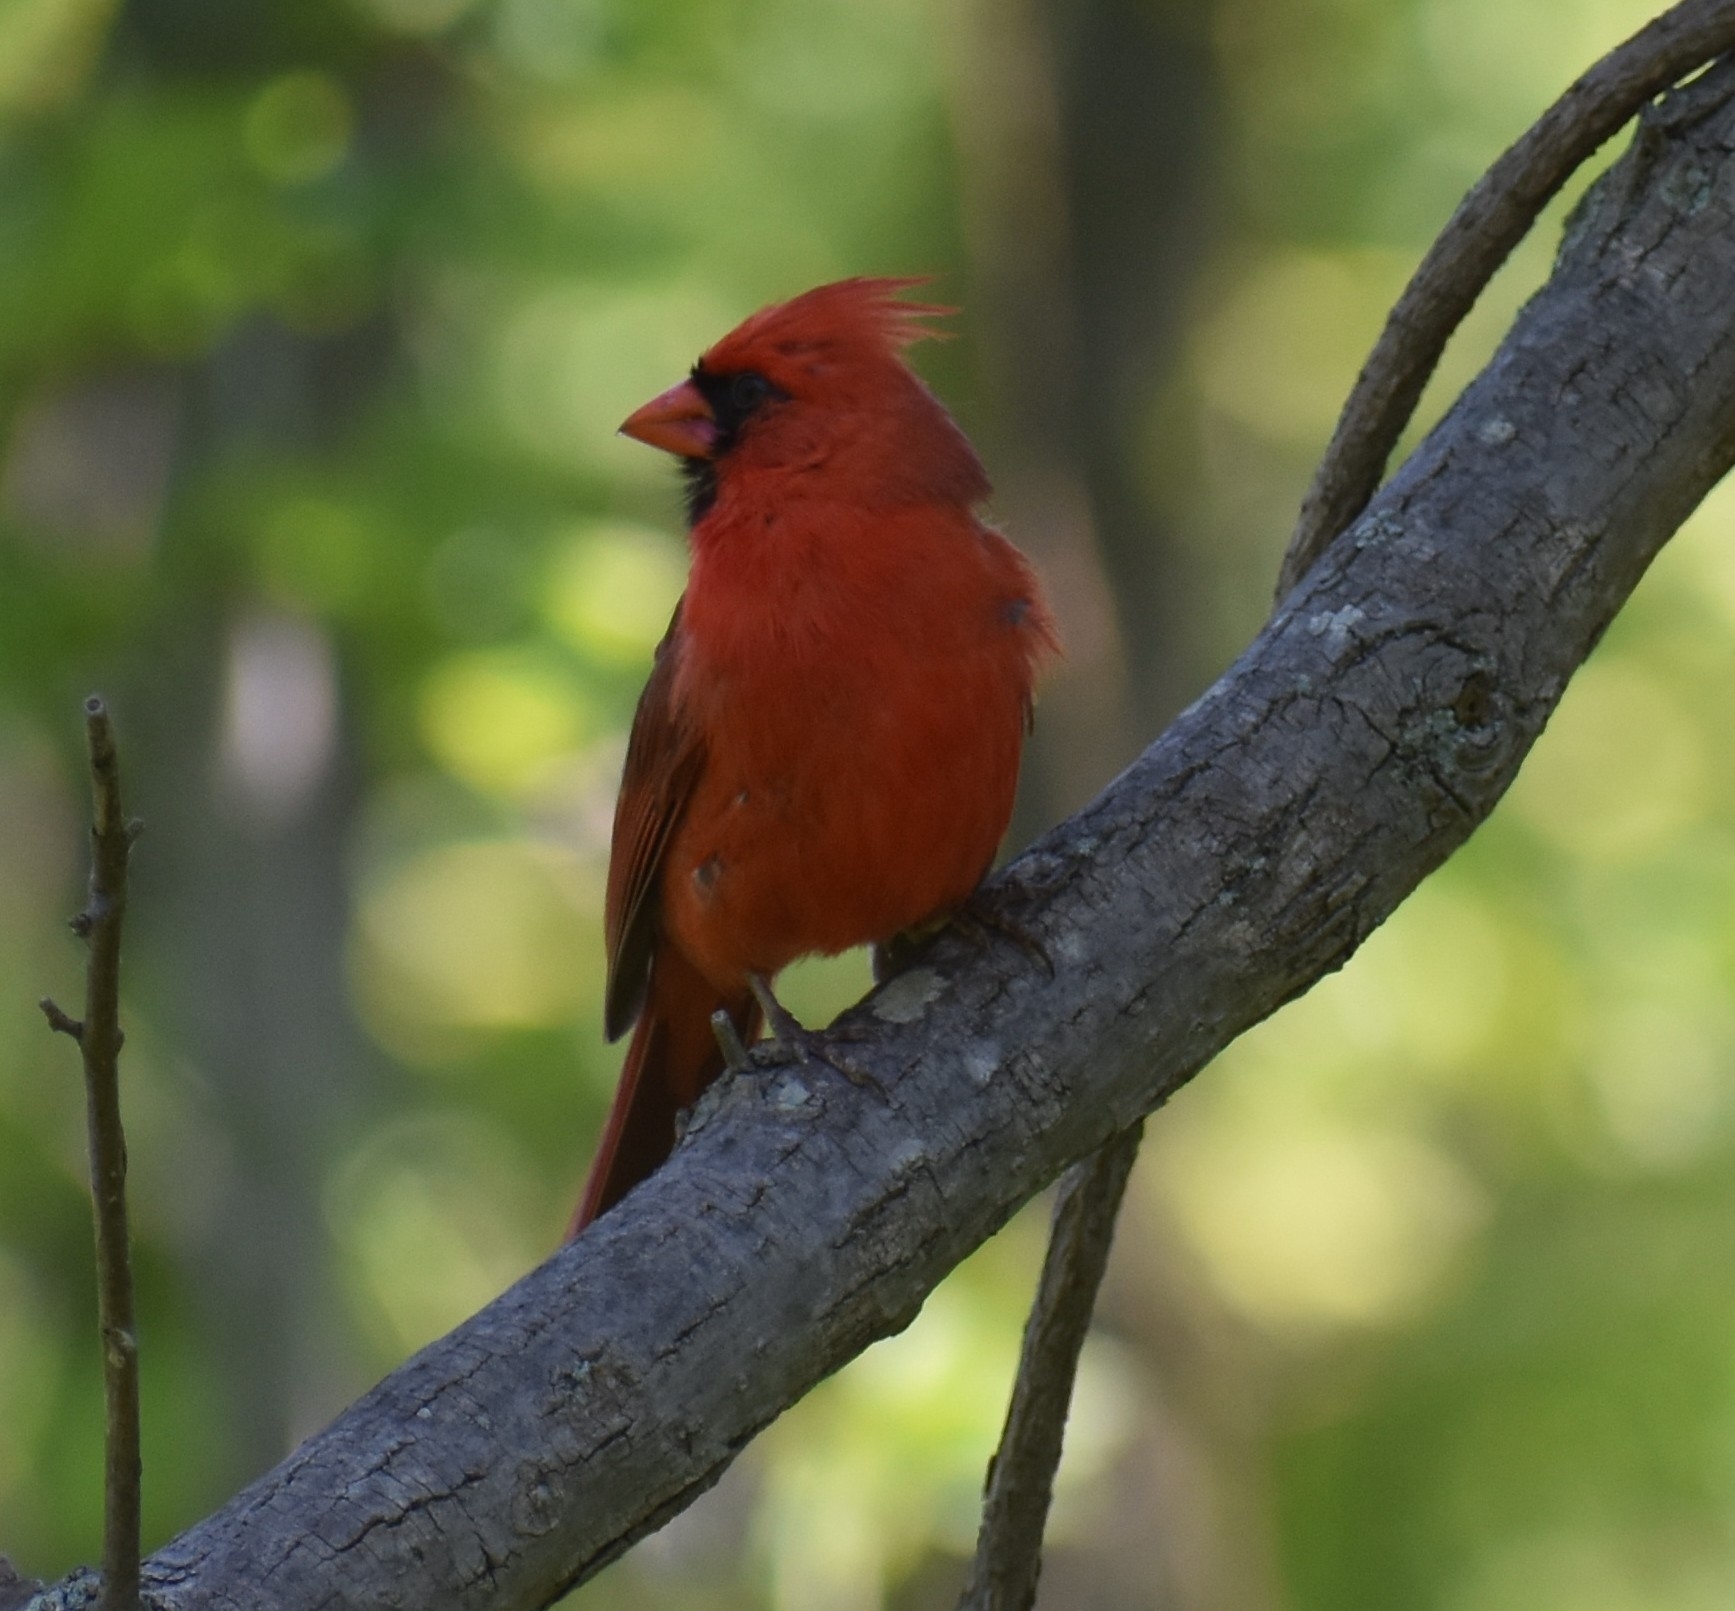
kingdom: Animalia
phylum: Chordata
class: Aves
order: Passeriformes
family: Cardinalidae
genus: Cardinalis
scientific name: Cardinalis cardinalis
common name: Northern cardinal
